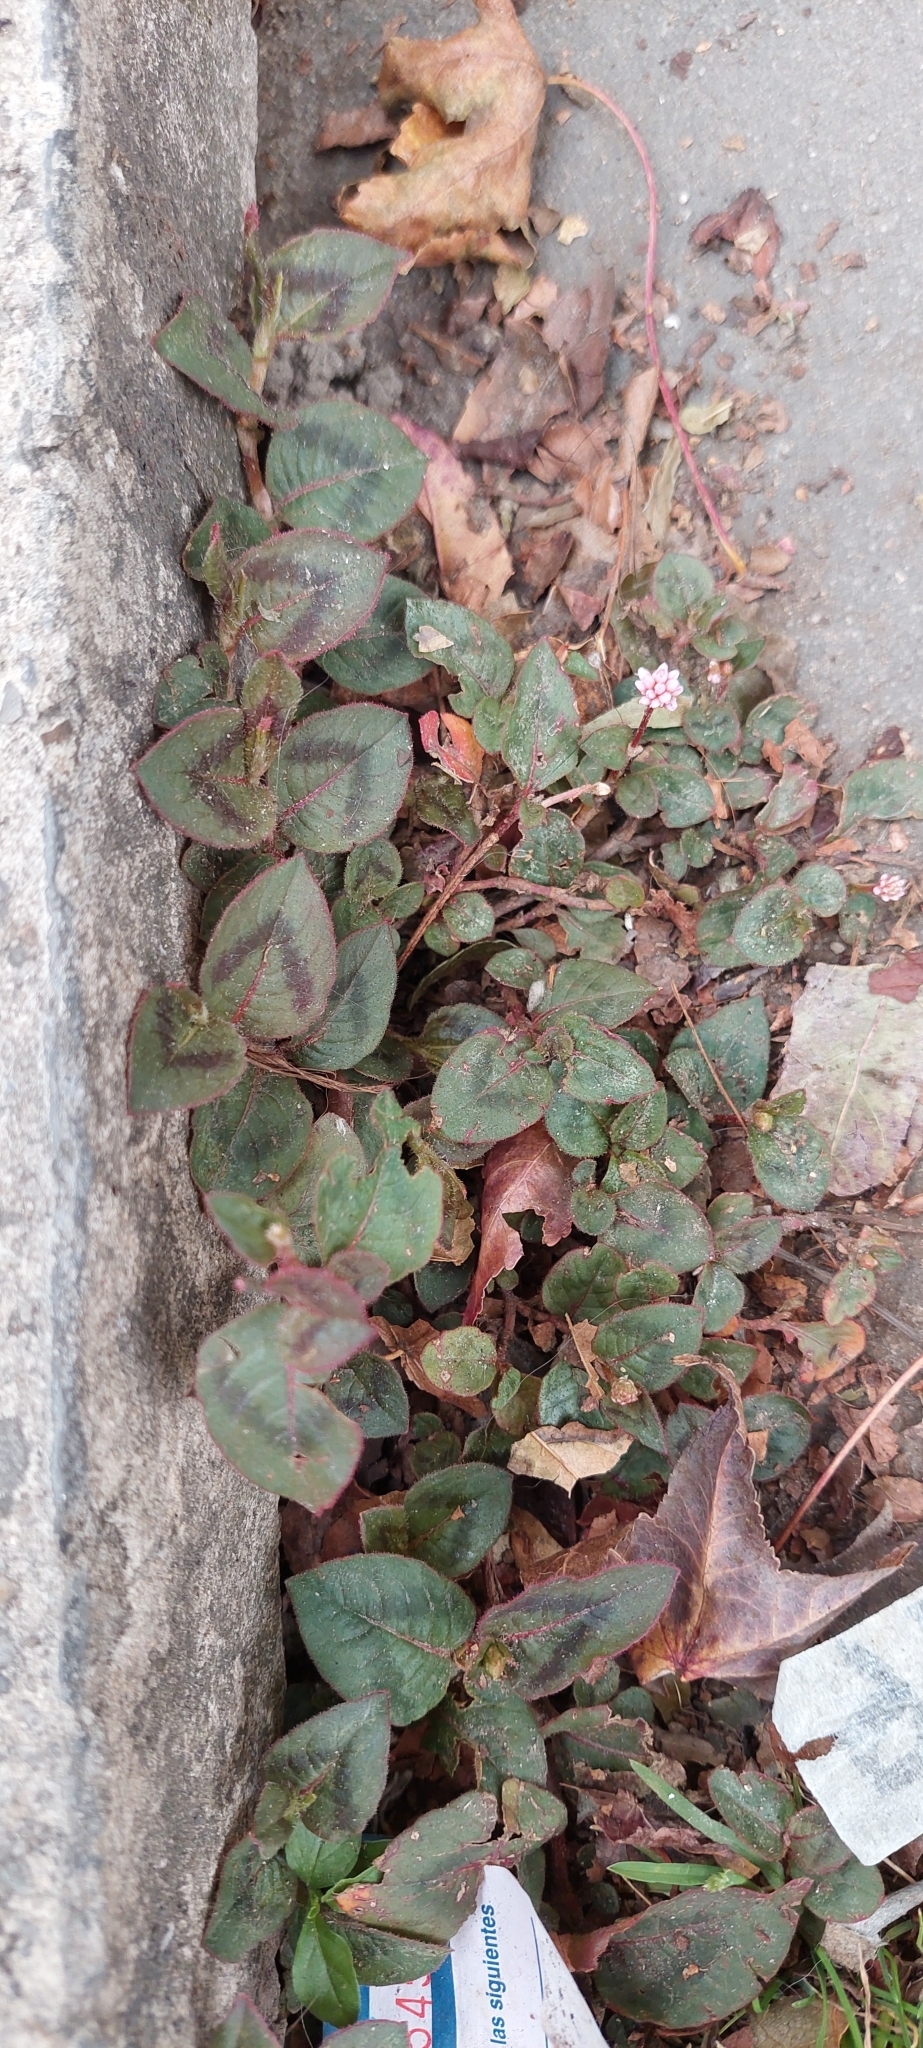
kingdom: Plantae
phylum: Tracheophyta
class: Magnoliopsida
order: Caryophyllales
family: Polygonaceae
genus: Persicaria
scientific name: Persicaria capitata
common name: Pinkhead smartweed
